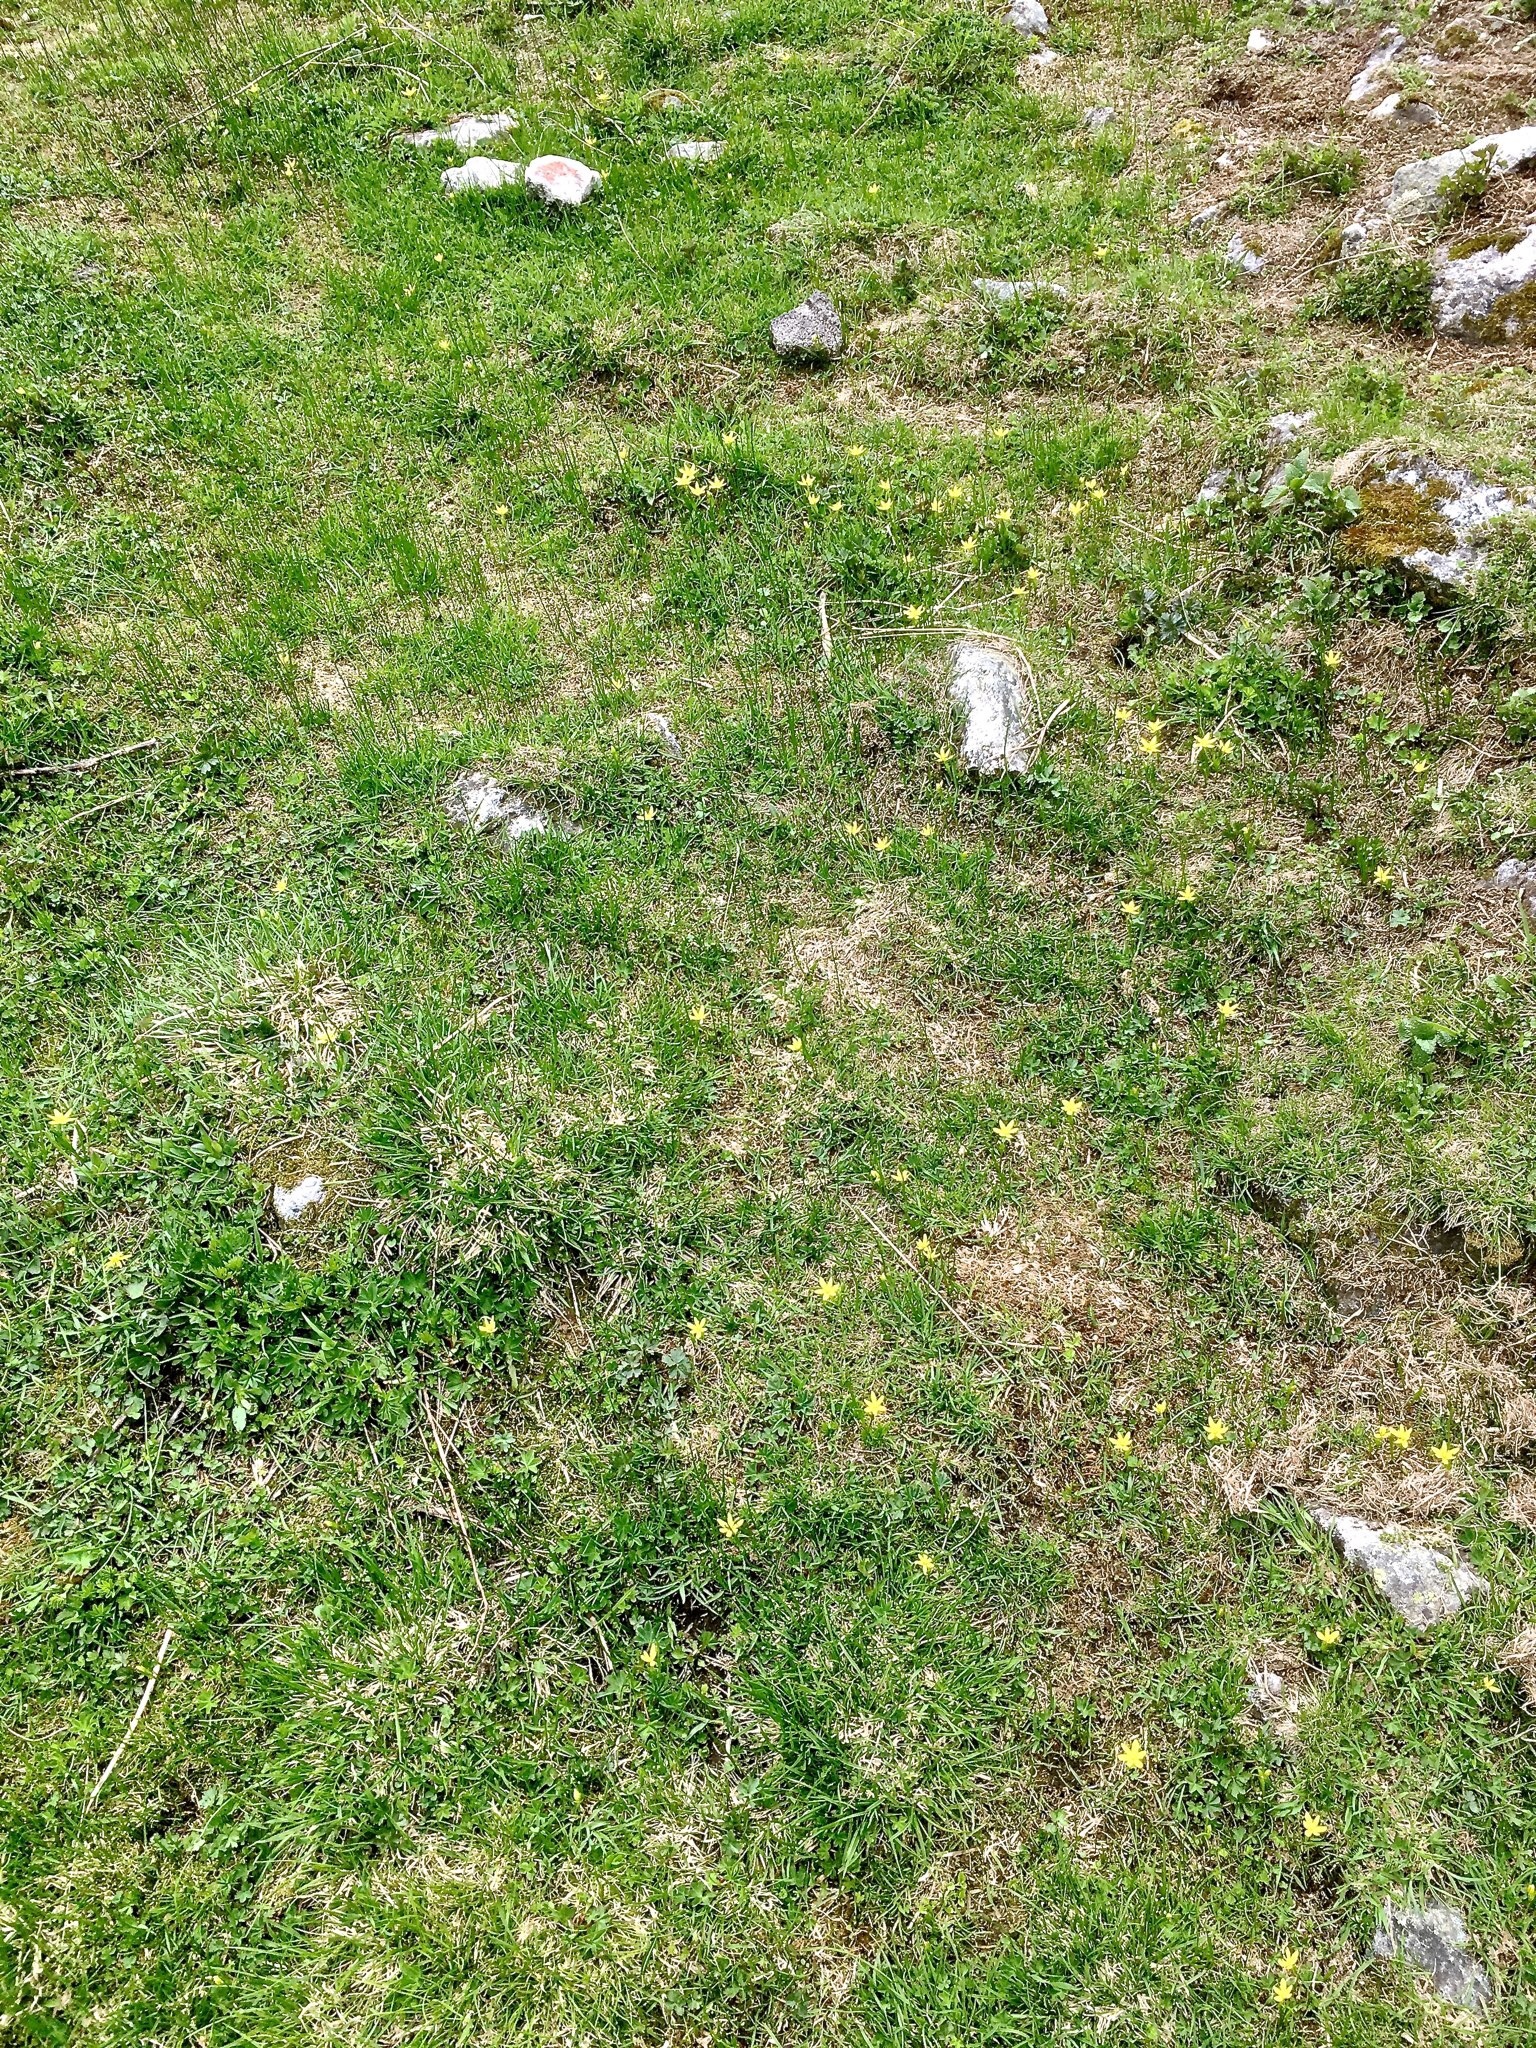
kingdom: Plantae
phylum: Tracheophyta
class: Liliopsida
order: Liliales
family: Liliaceae
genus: Gagea
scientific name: Gagea fragifera
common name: Lily
